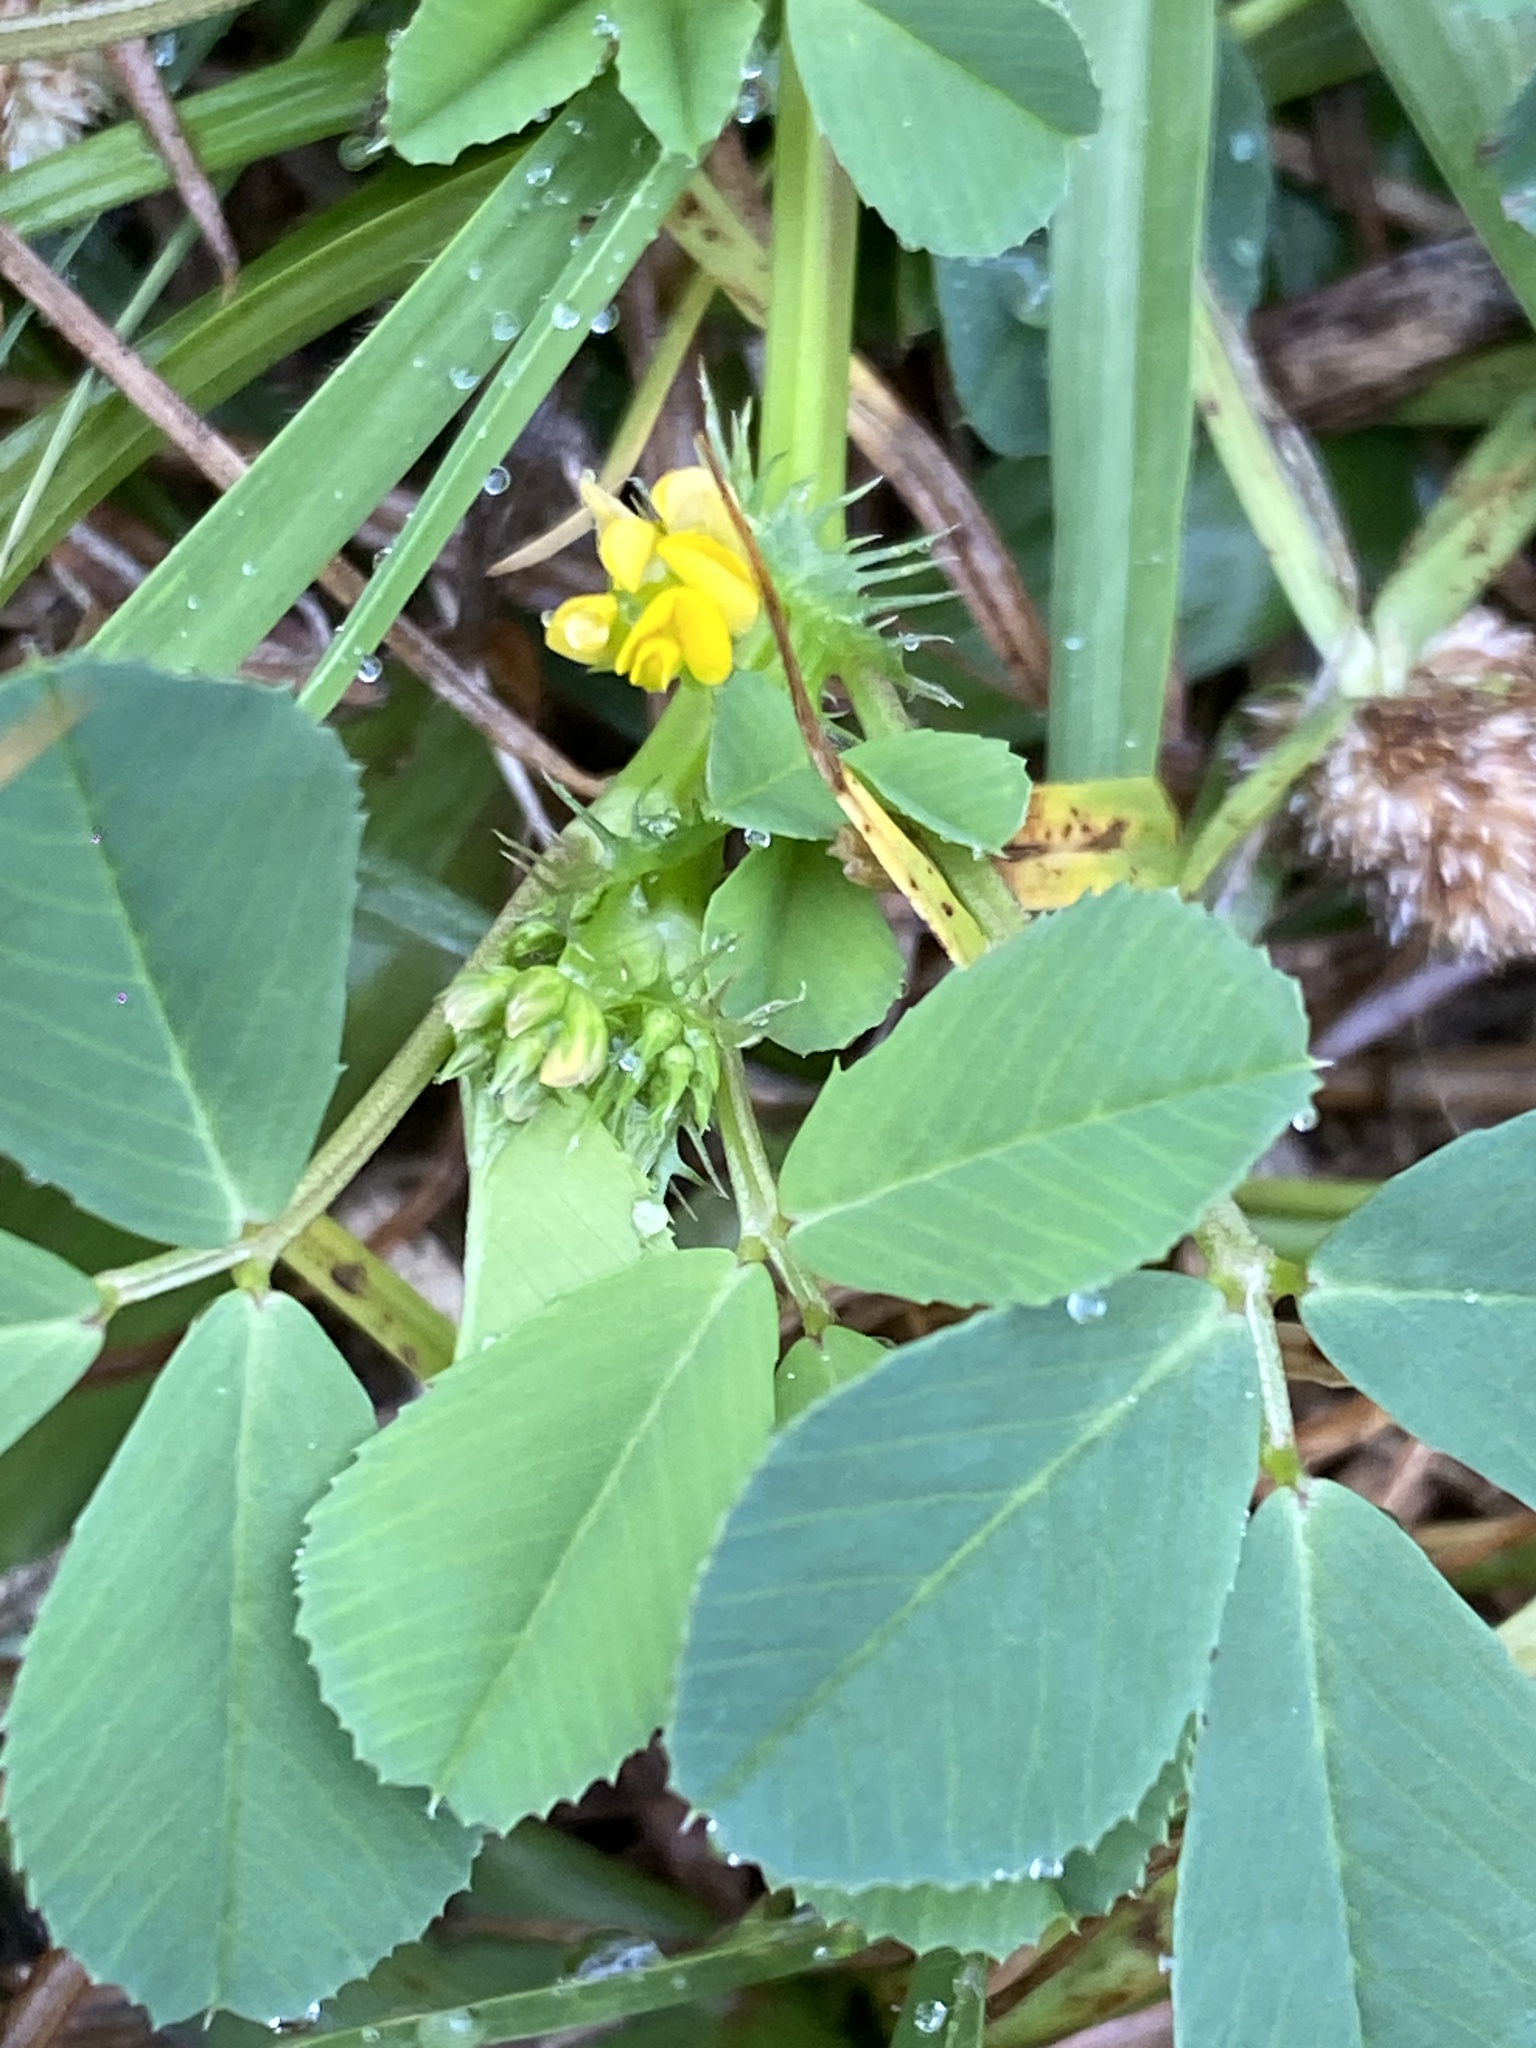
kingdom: Plantae
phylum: Tracheophyta
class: Magnoliopsida
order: Fabales
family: Fabaceae
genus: Medicago
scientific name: Medicago polymorpha
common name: Burclover
